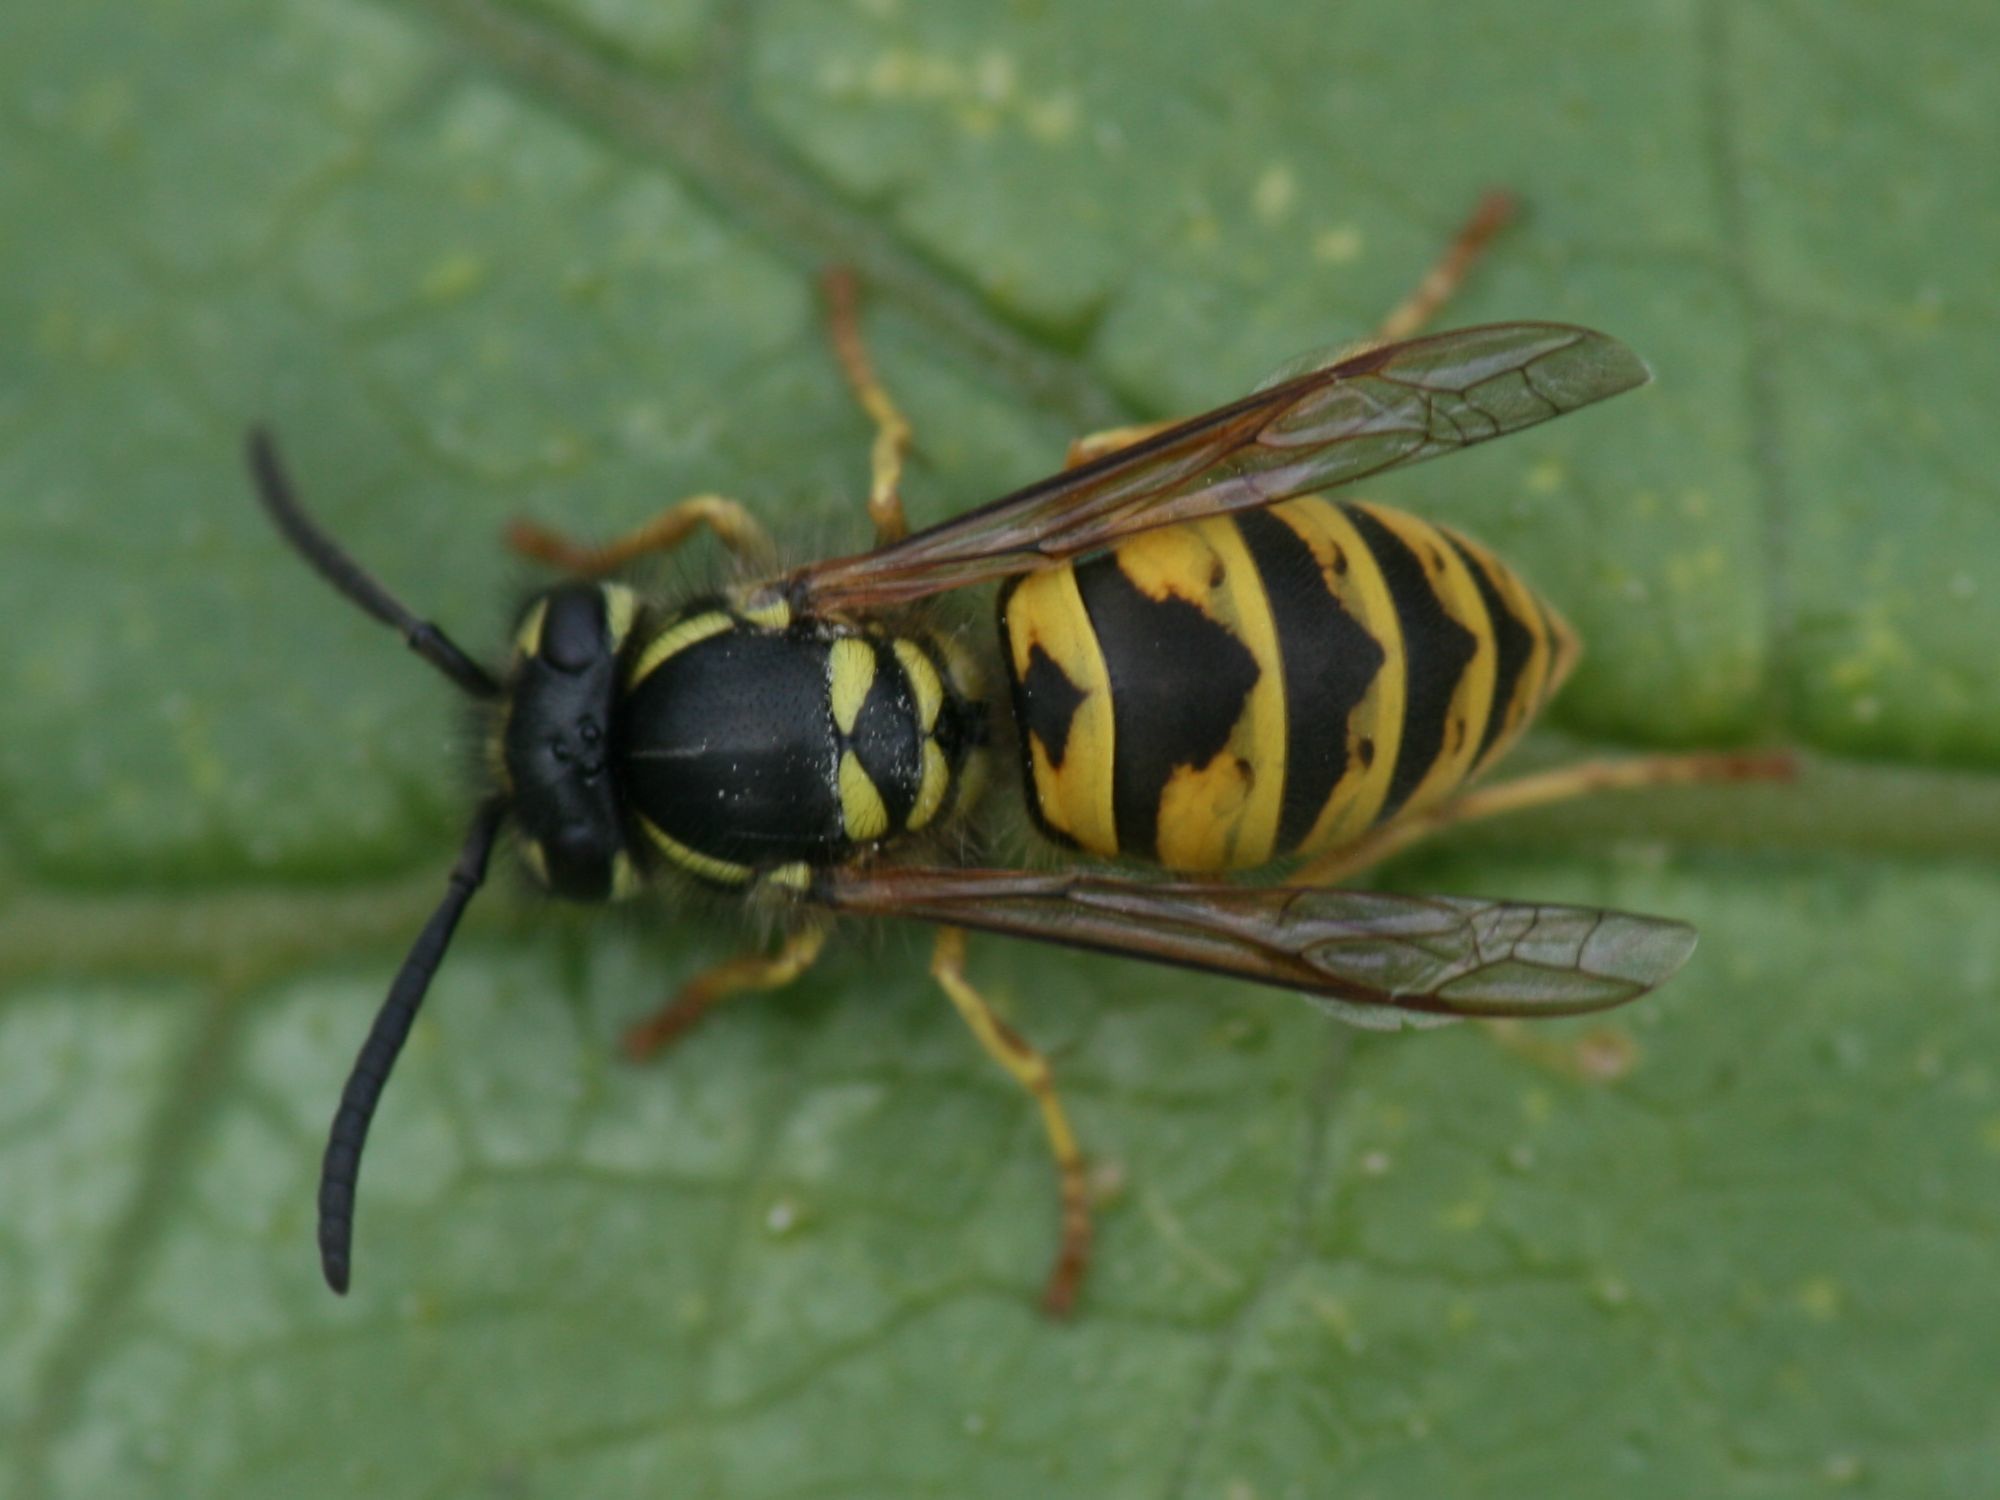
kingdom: Animalia
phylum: Arthropoda
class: Insecta
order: Hymenoptera
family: Vespidae
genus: Vespula
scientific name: Vespula vulgaris
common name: Common wasp
